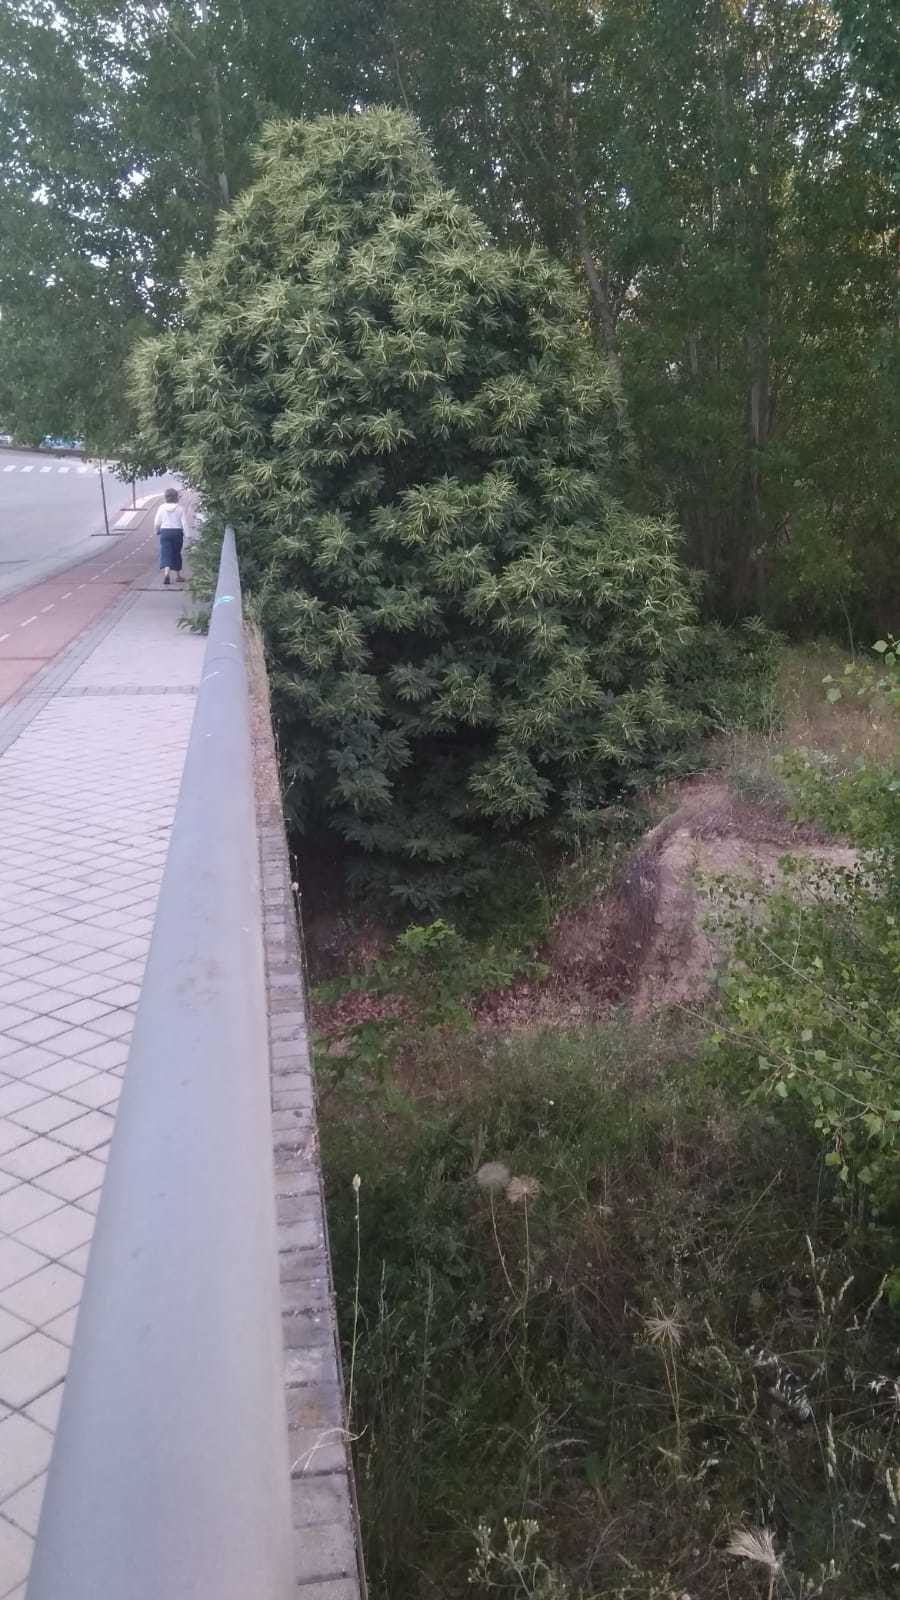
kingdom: Plantae
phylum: Tracheophyta
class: Magnoliopsida
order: Fagales
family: Fagaceae
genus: Castanea
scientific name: Castanea sativa
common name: Sweet chestnut
